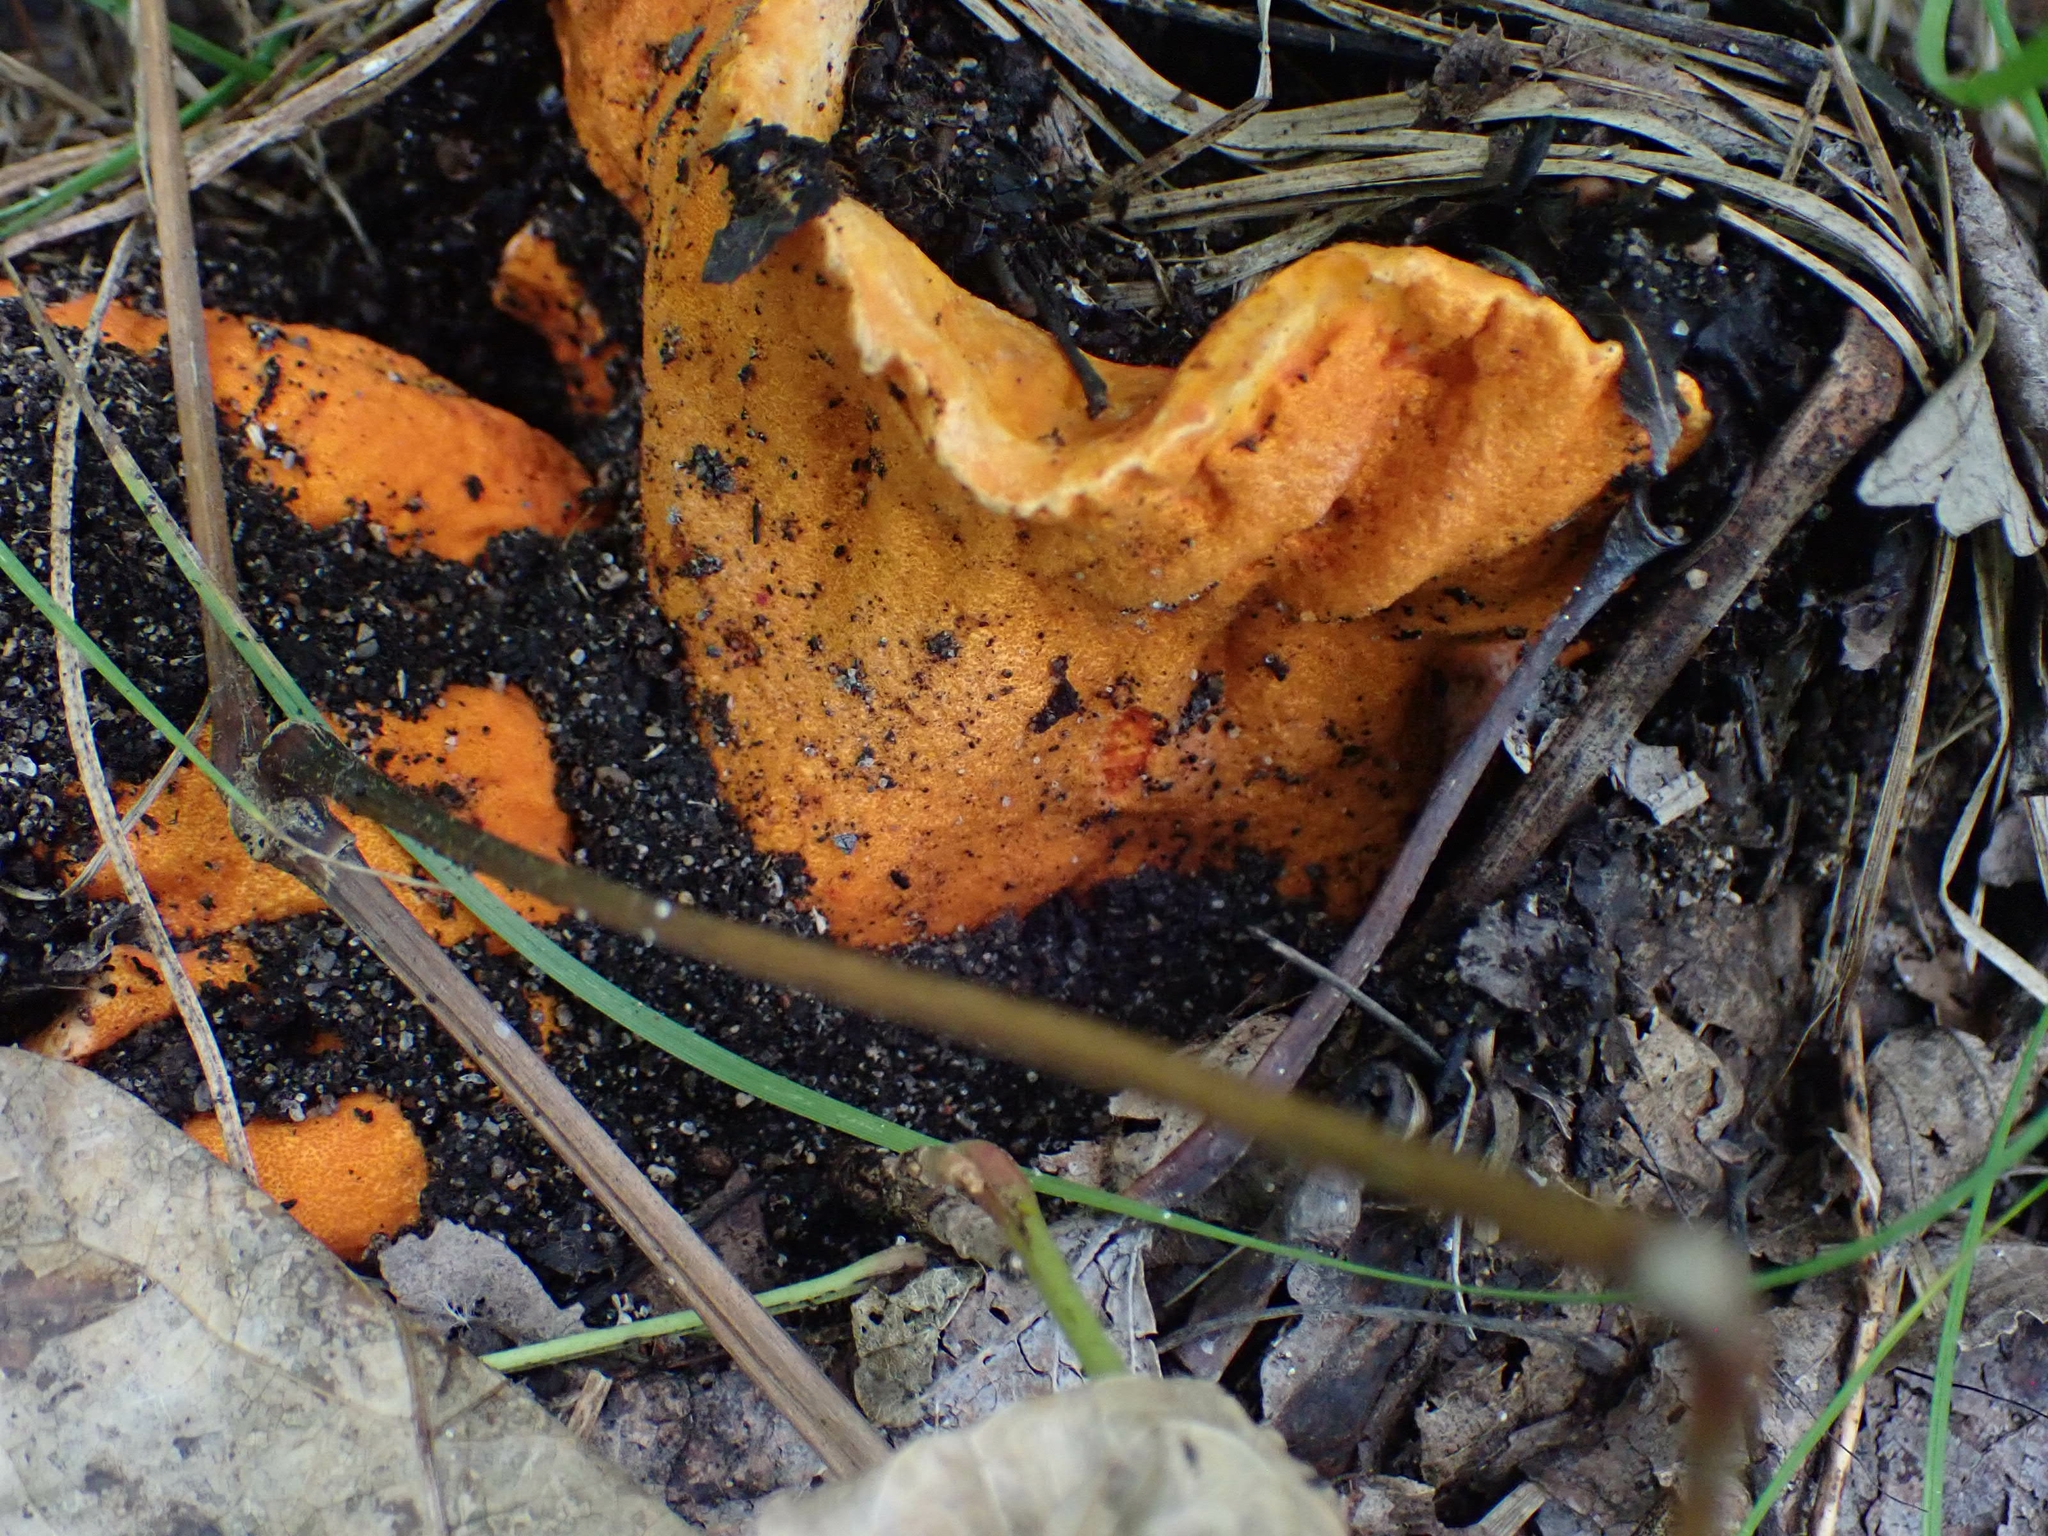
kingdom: Fungi
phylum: Ascomycota
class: Sordariomycetes
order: Hypocreales
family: Hypocreaceae
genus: Hypomyces
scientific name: Hypomyces lactifluorum
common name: Lobster mushroom
